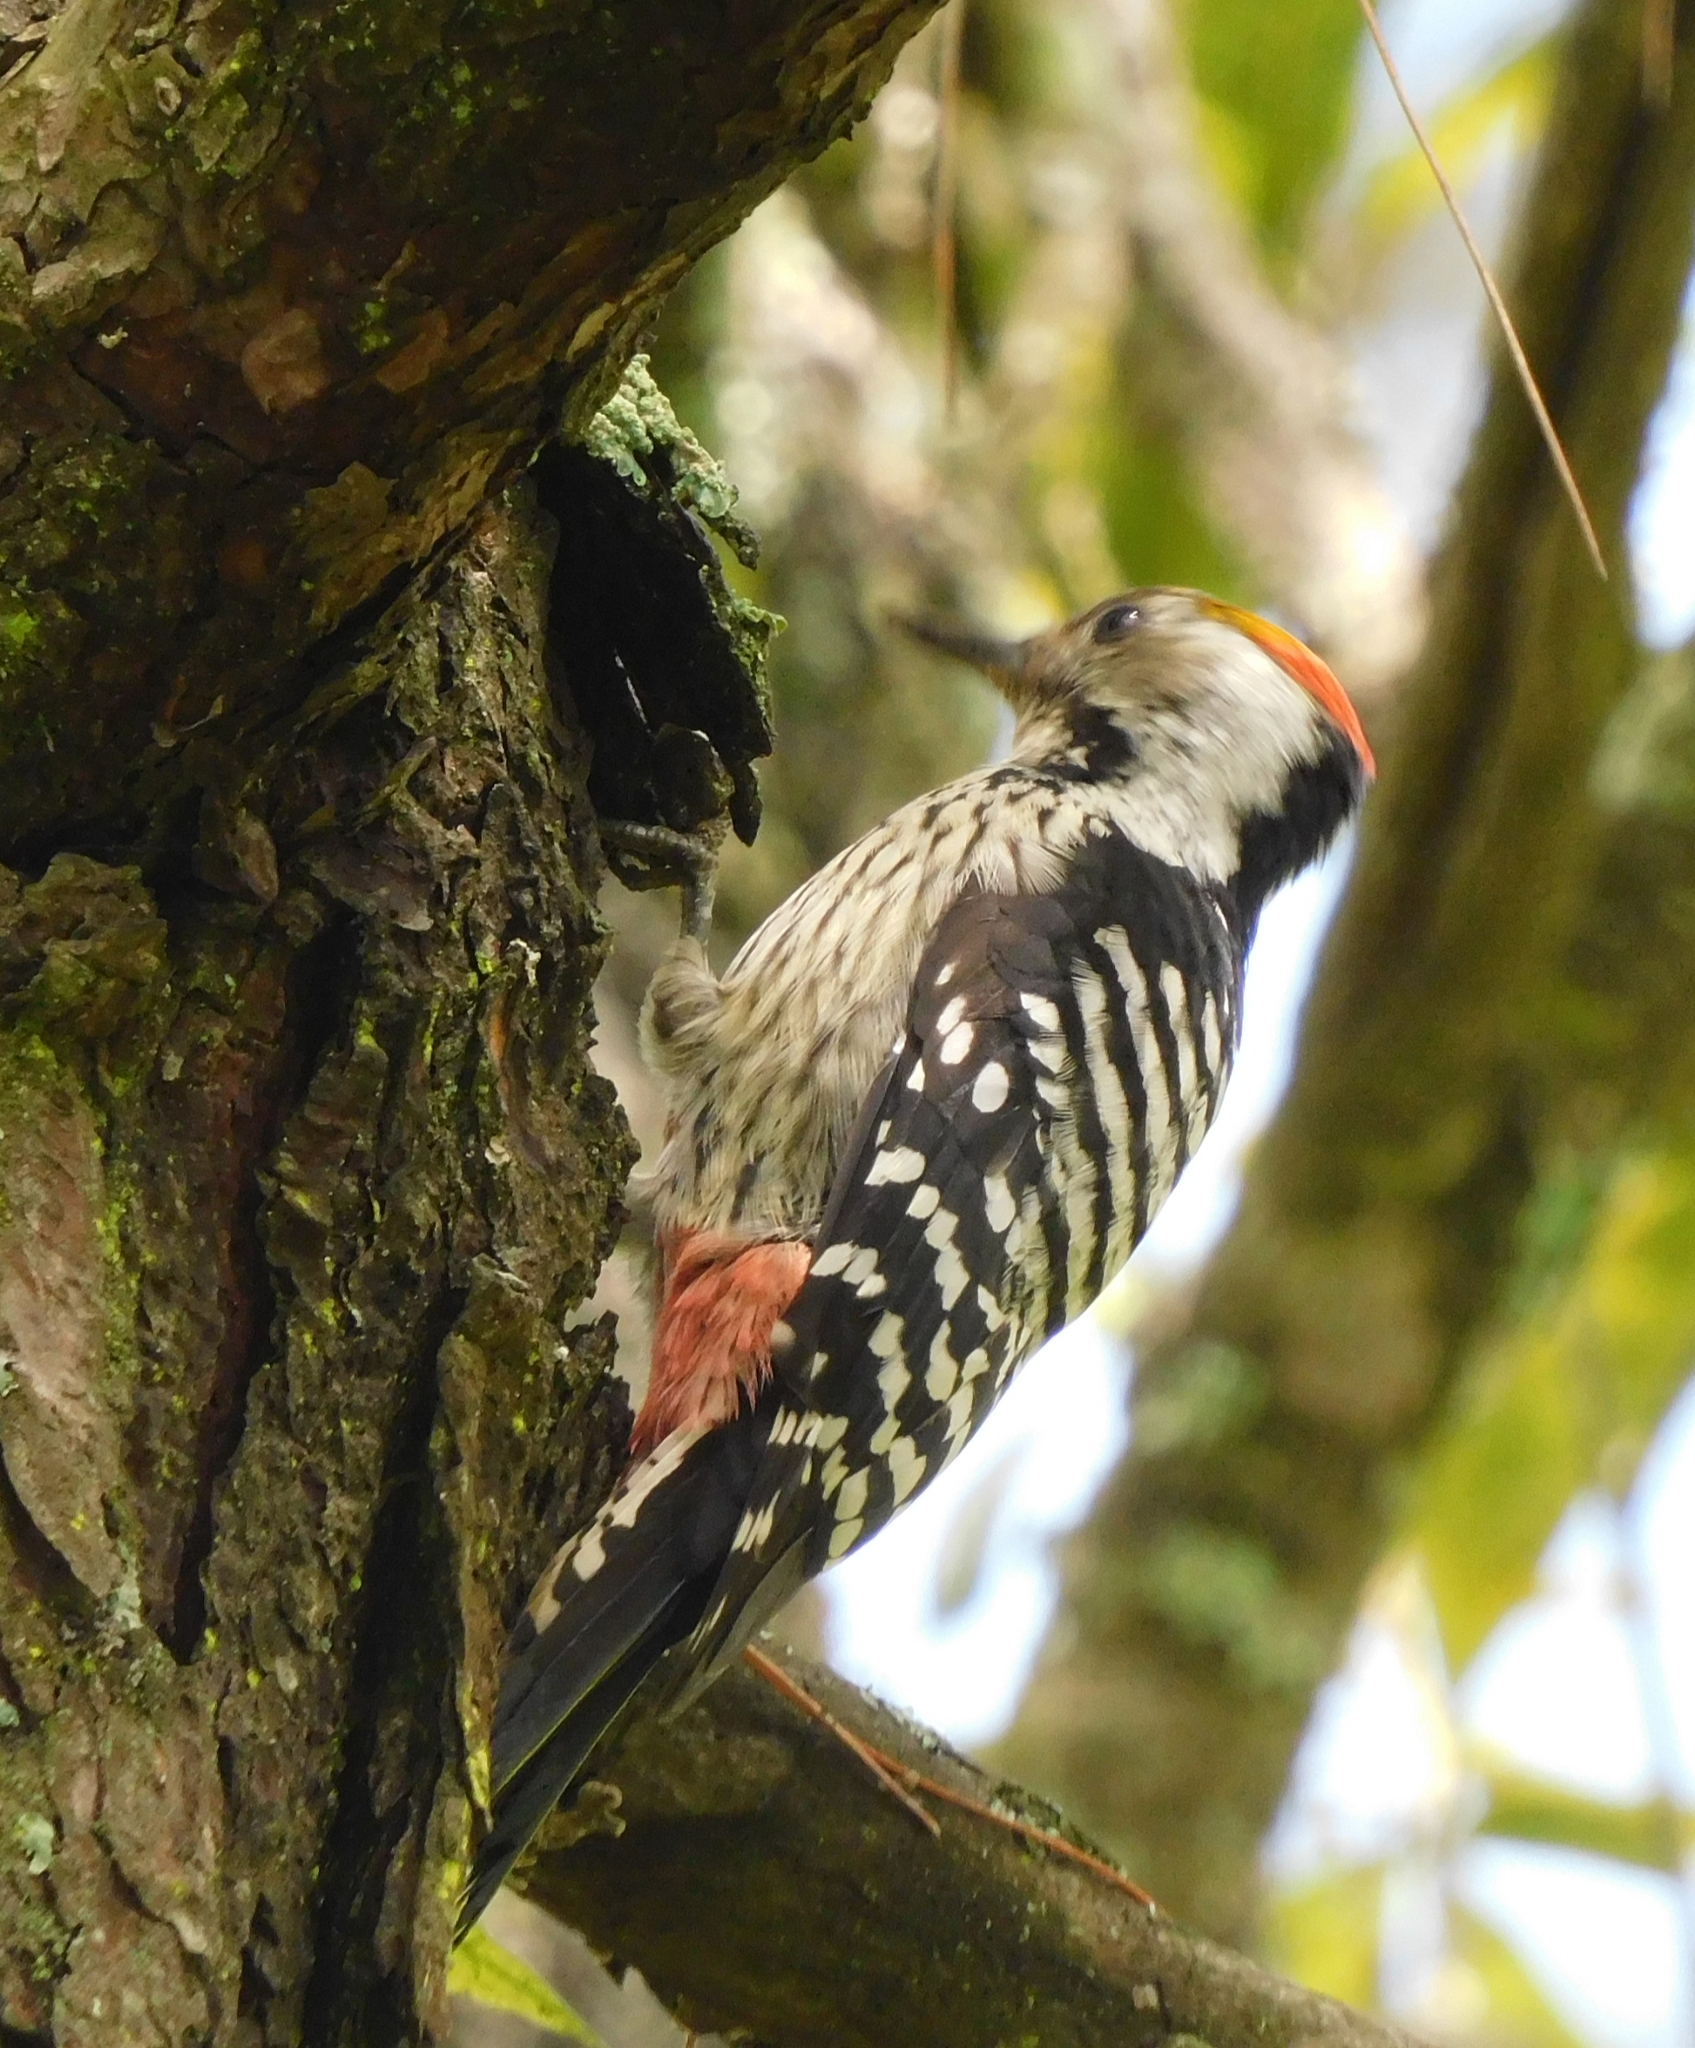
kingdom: Animalia
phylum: Chordata
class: Aves
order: Piciformes
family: Picidae
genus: Dendrocoptes
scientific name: Dendrocoptes auriceps
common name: Brown-fronted woodpecker
